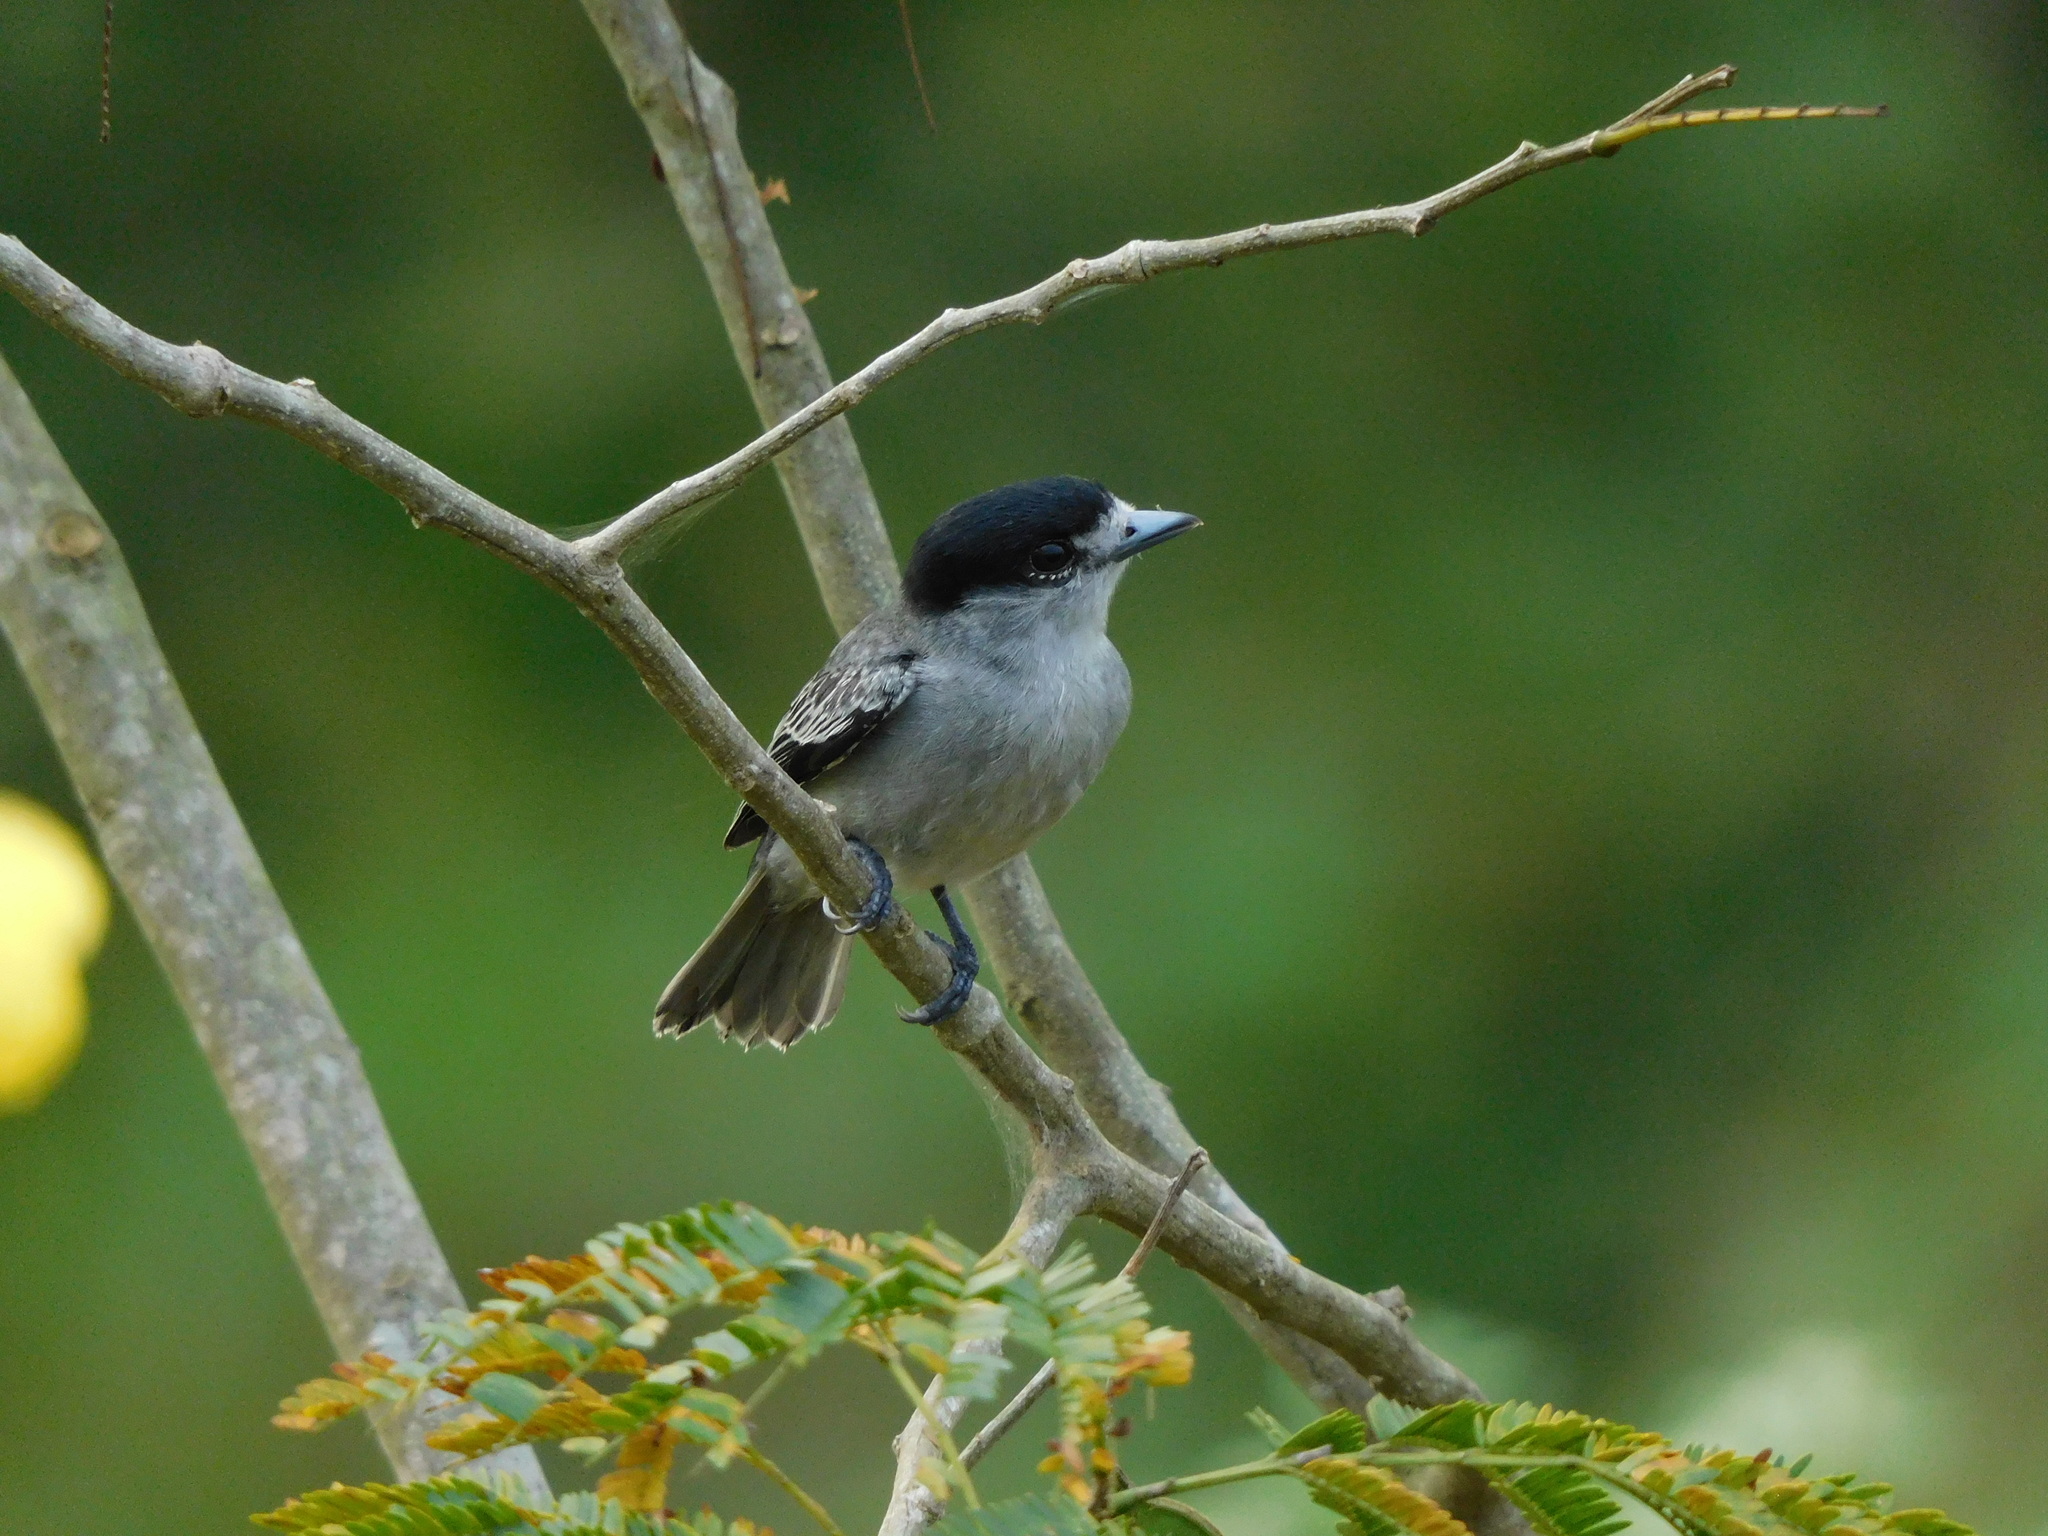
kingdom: Animalia
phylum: Chordata
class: Aves
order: Passeriformes
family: Cotingidae
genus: Pachyramphus
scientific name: Pachyramphus rufus
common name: Cinereous becard
